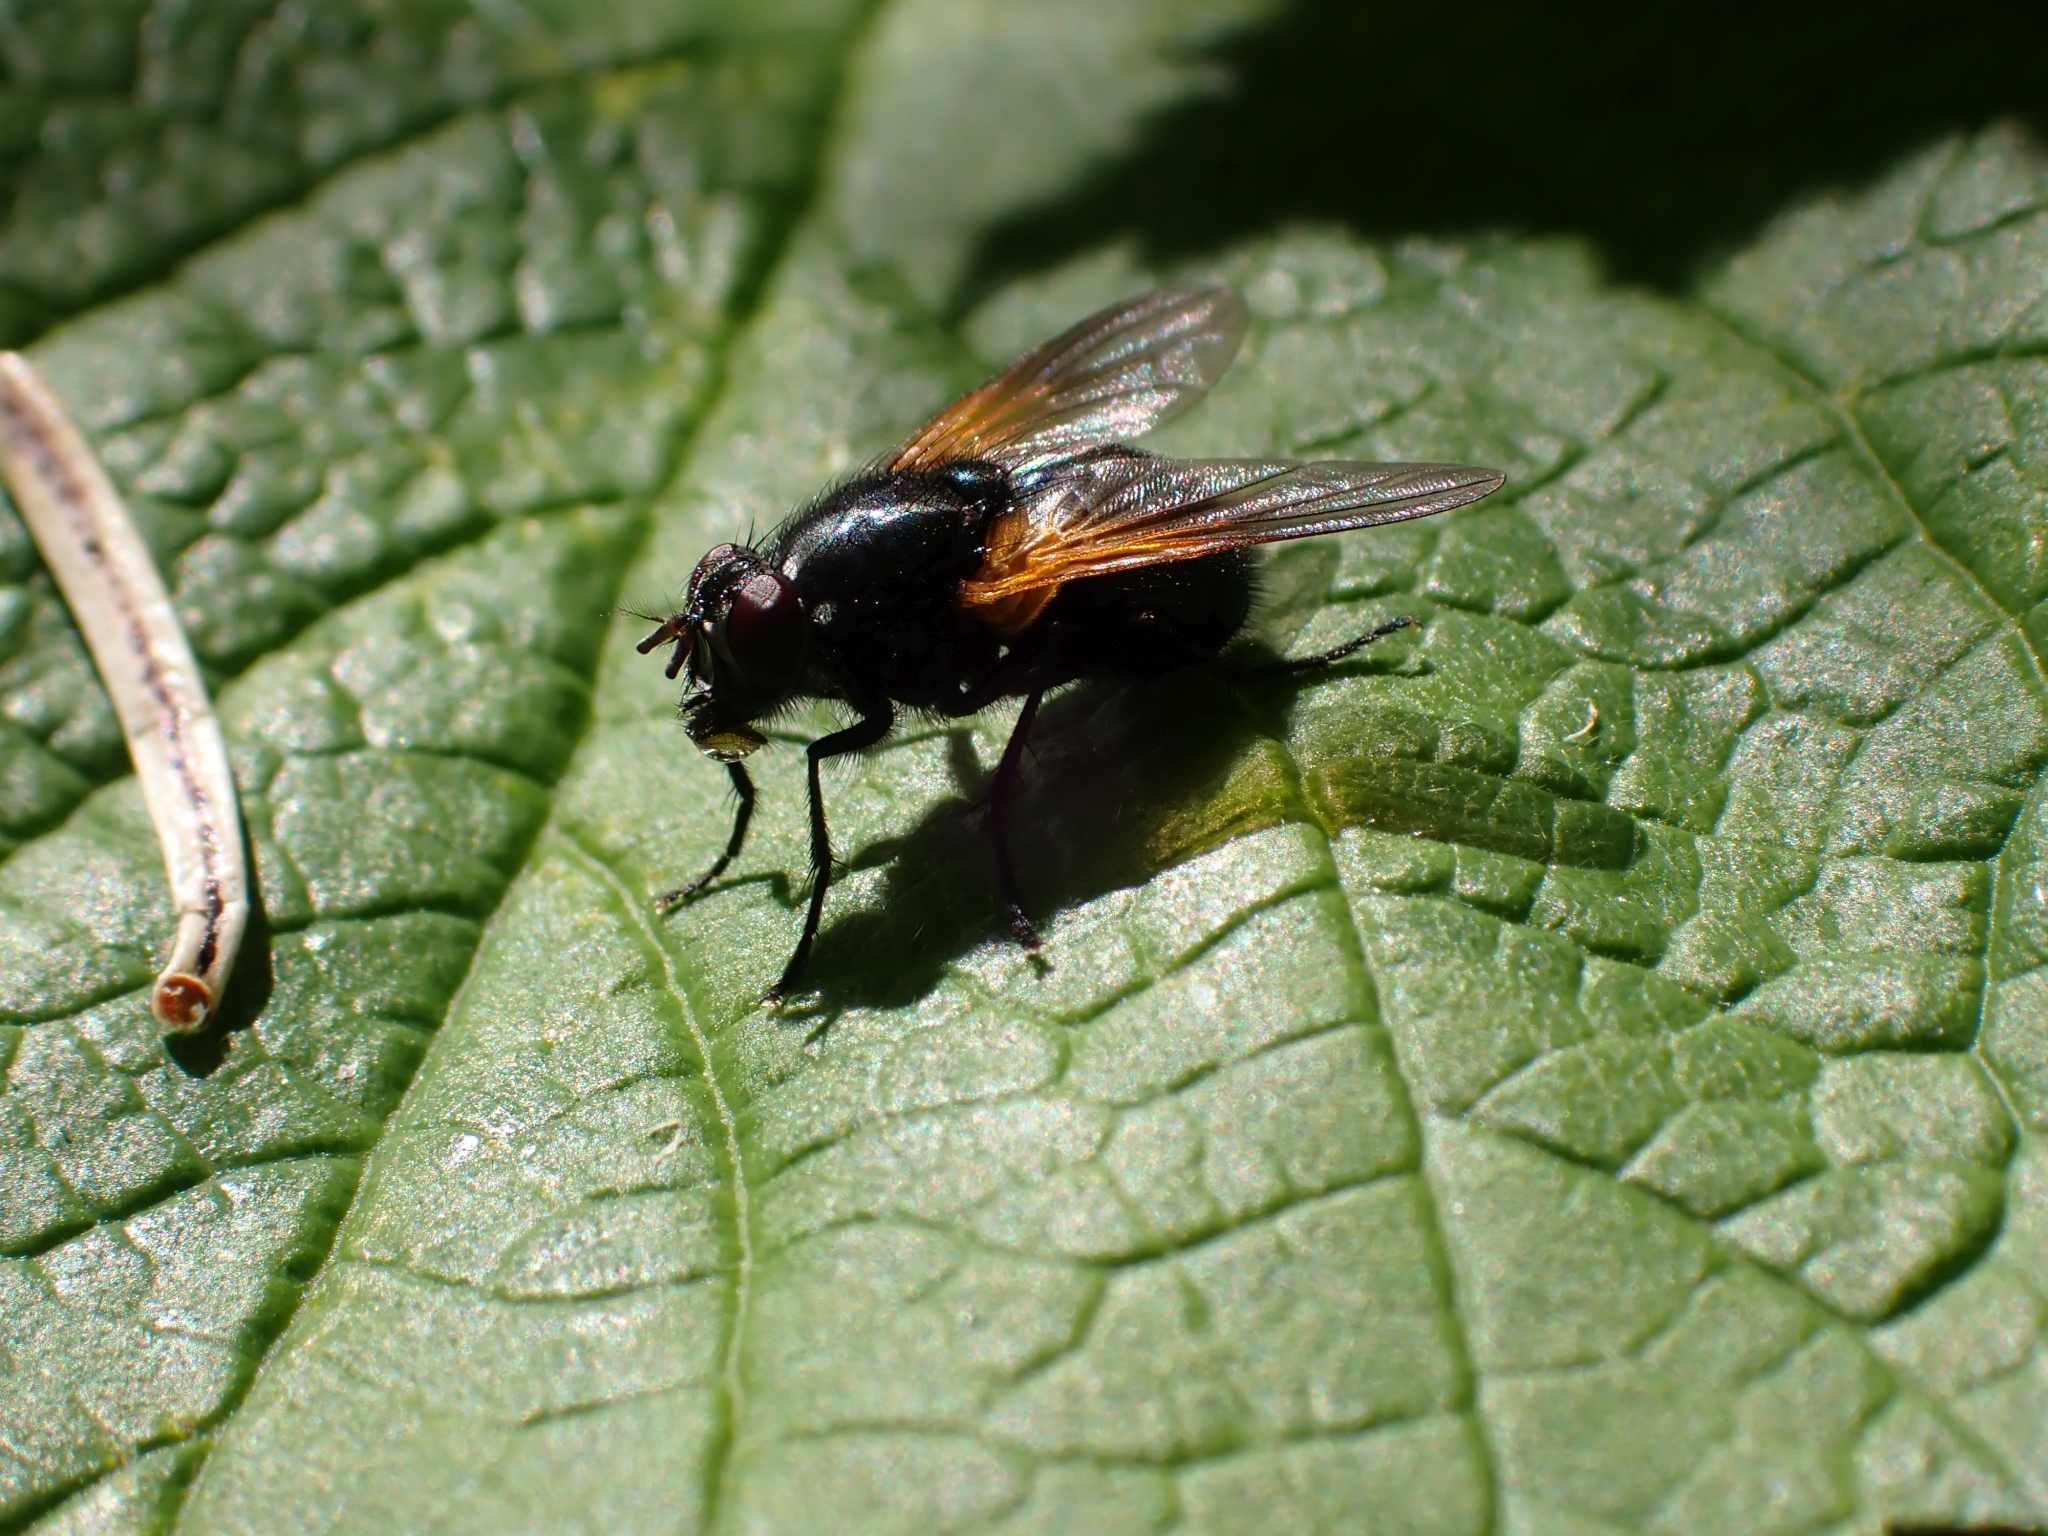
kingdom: Animalia
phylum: Arthropoda
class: Insecta
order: Diptera
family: Muscidae
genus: Mesembrina
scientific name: Mesembrina latreillii
